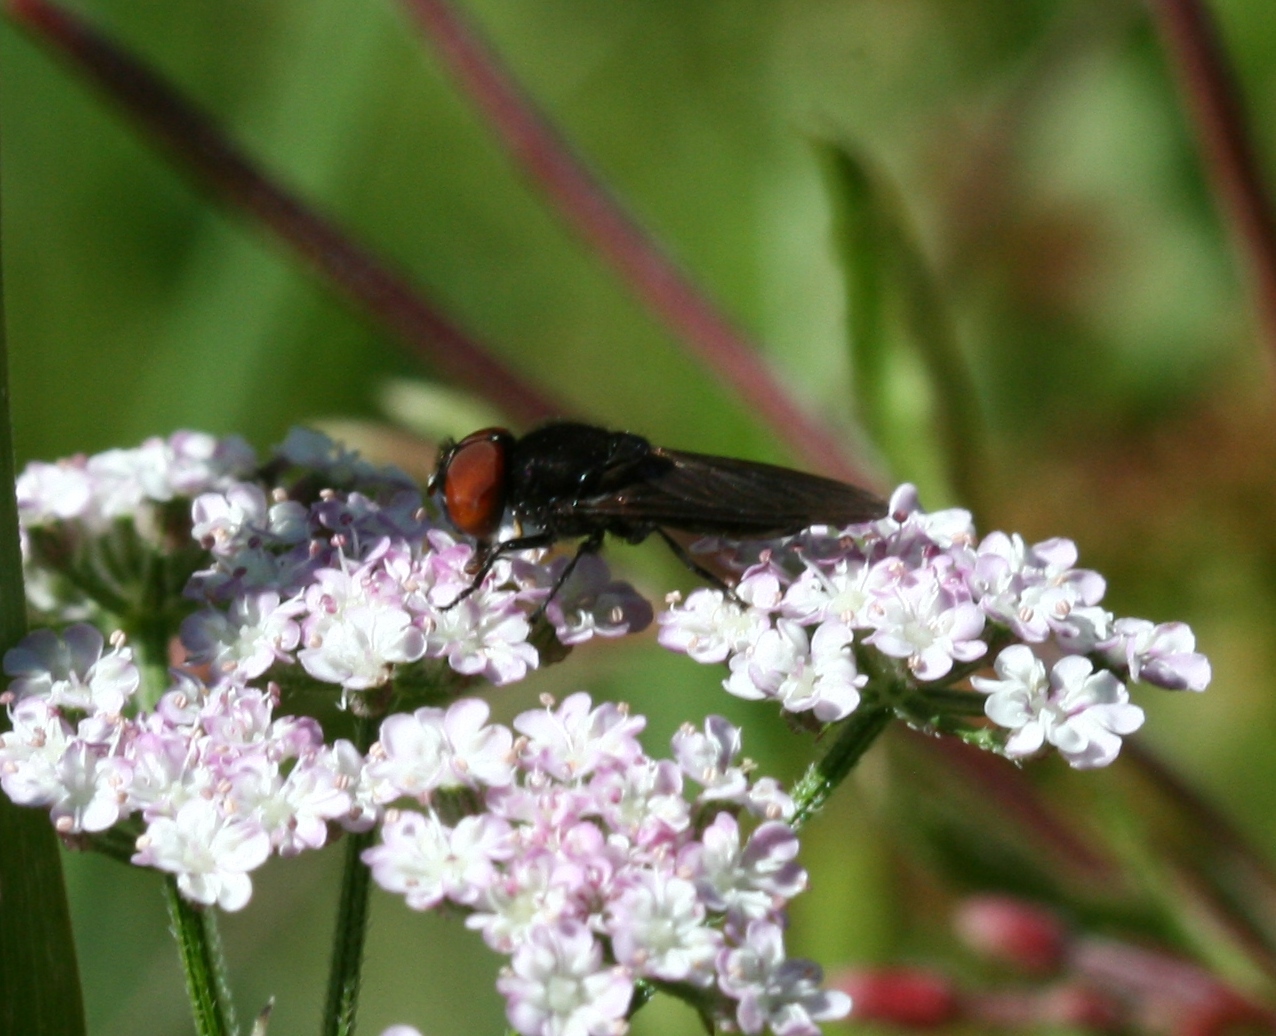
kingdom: Animalia
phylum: Arthropoda
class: Insecta
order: Diptera
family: Syrphidae
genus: Chrysogaster
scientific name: Chrysogaster solstitialis
